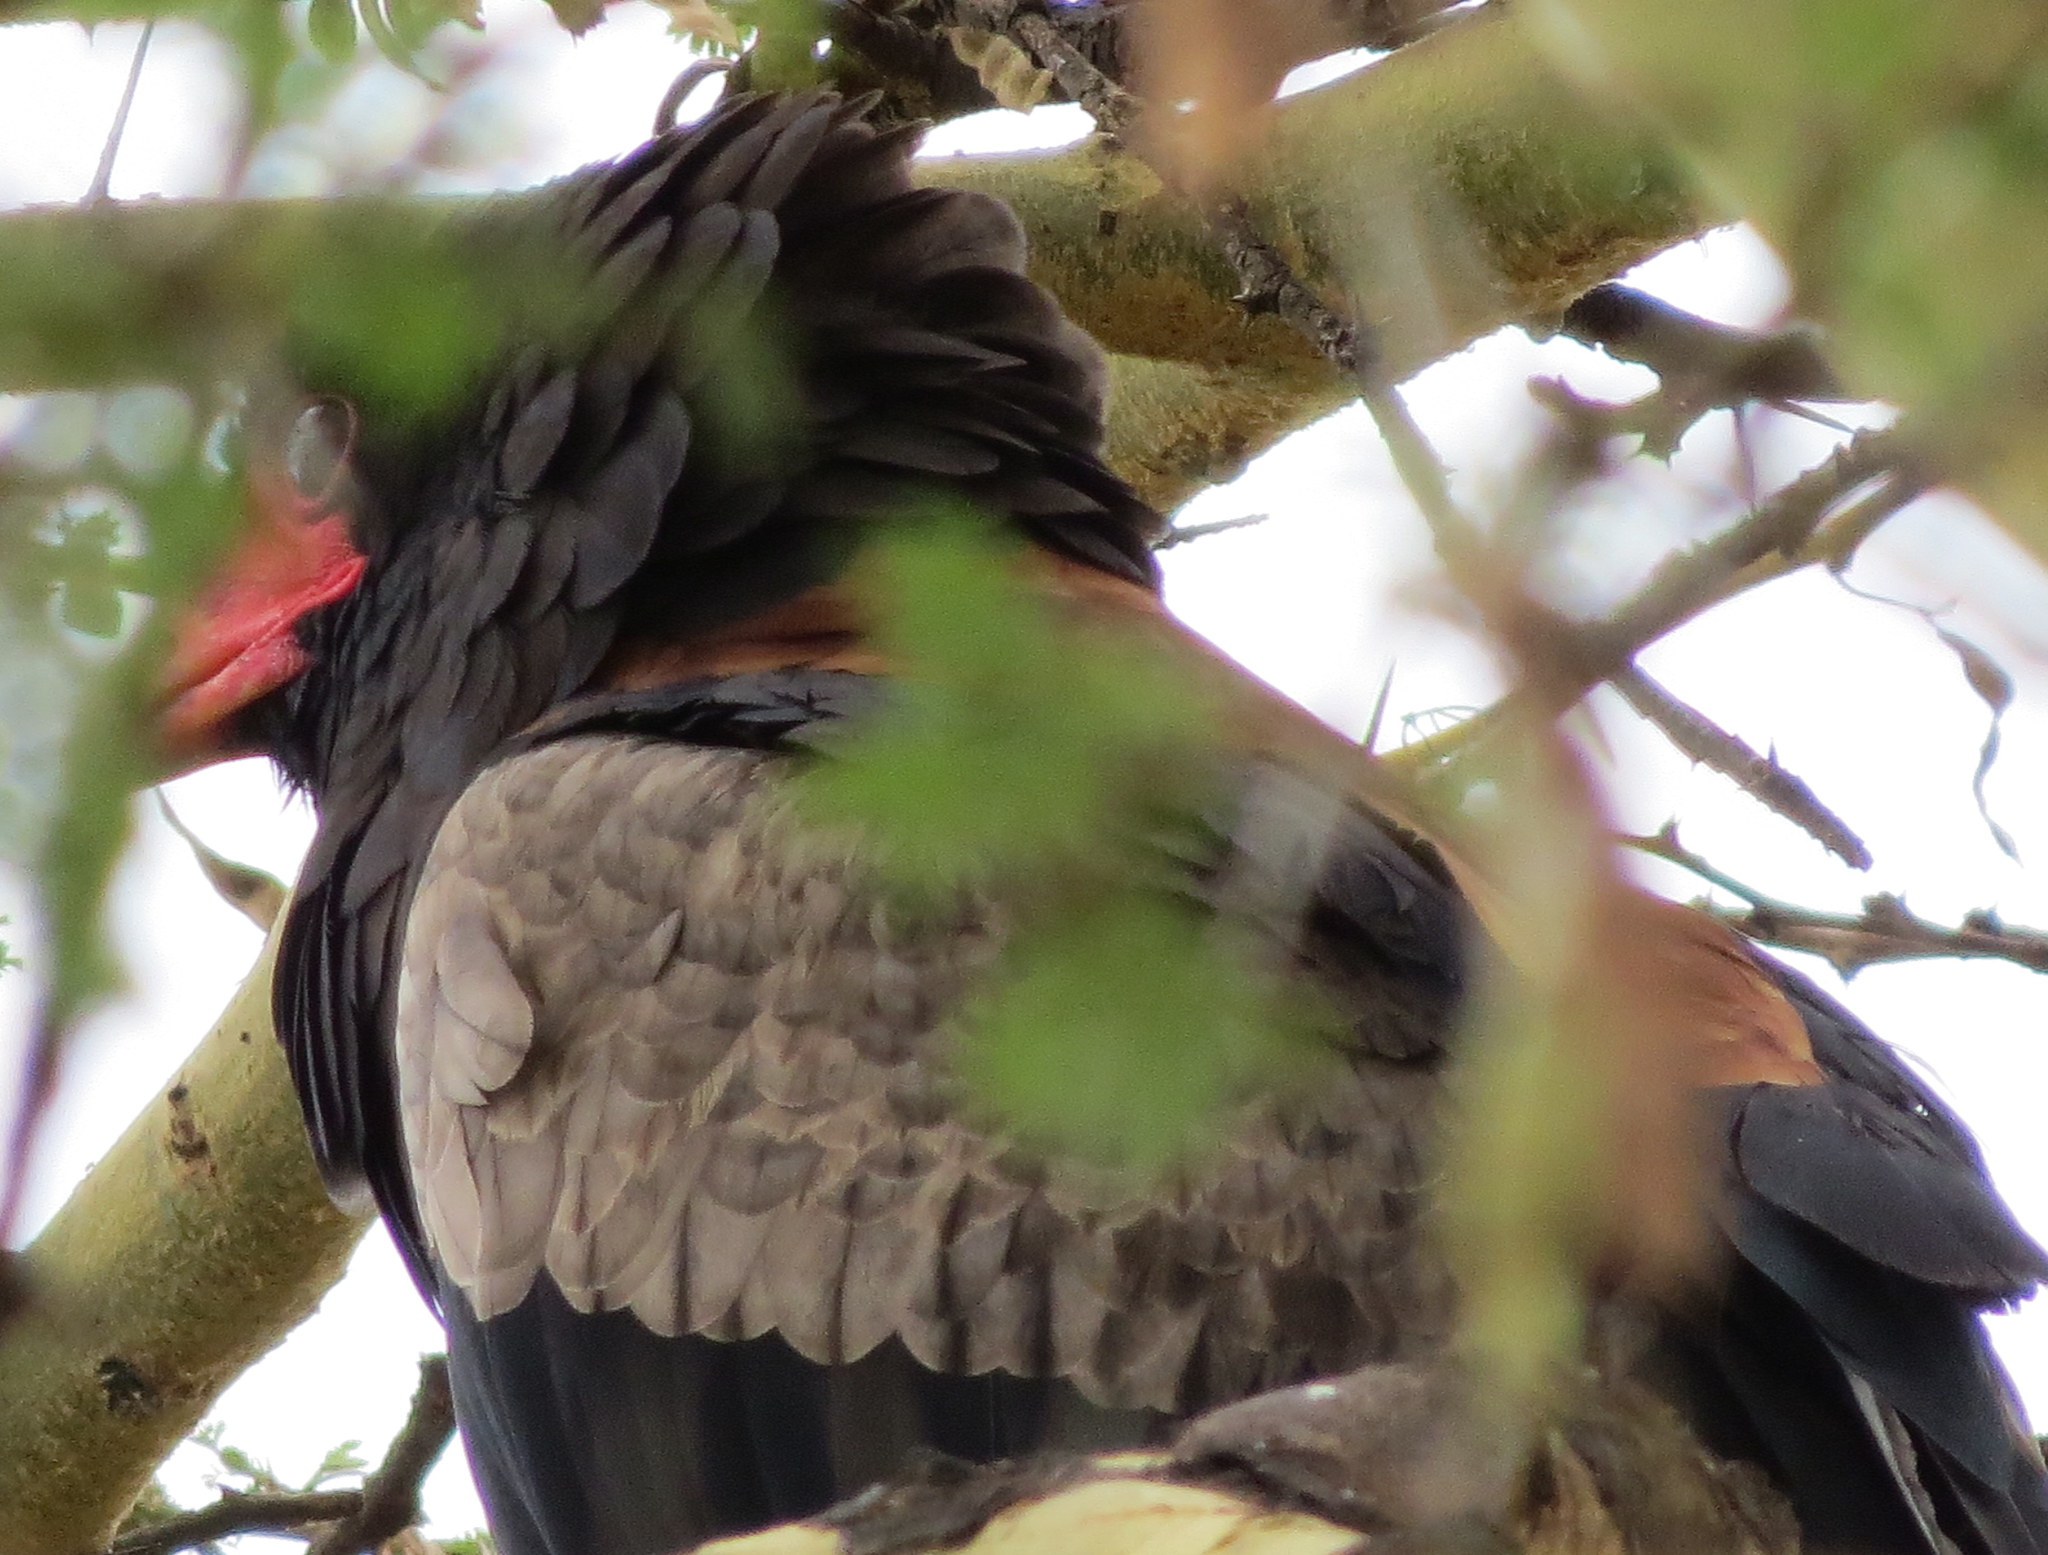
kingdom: Animalia
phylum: Chordata
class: Aves
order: Accipitriformes
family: Accipitridae
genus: Terathopius
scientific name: Terathopius ecaudatus
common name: Bateleur
